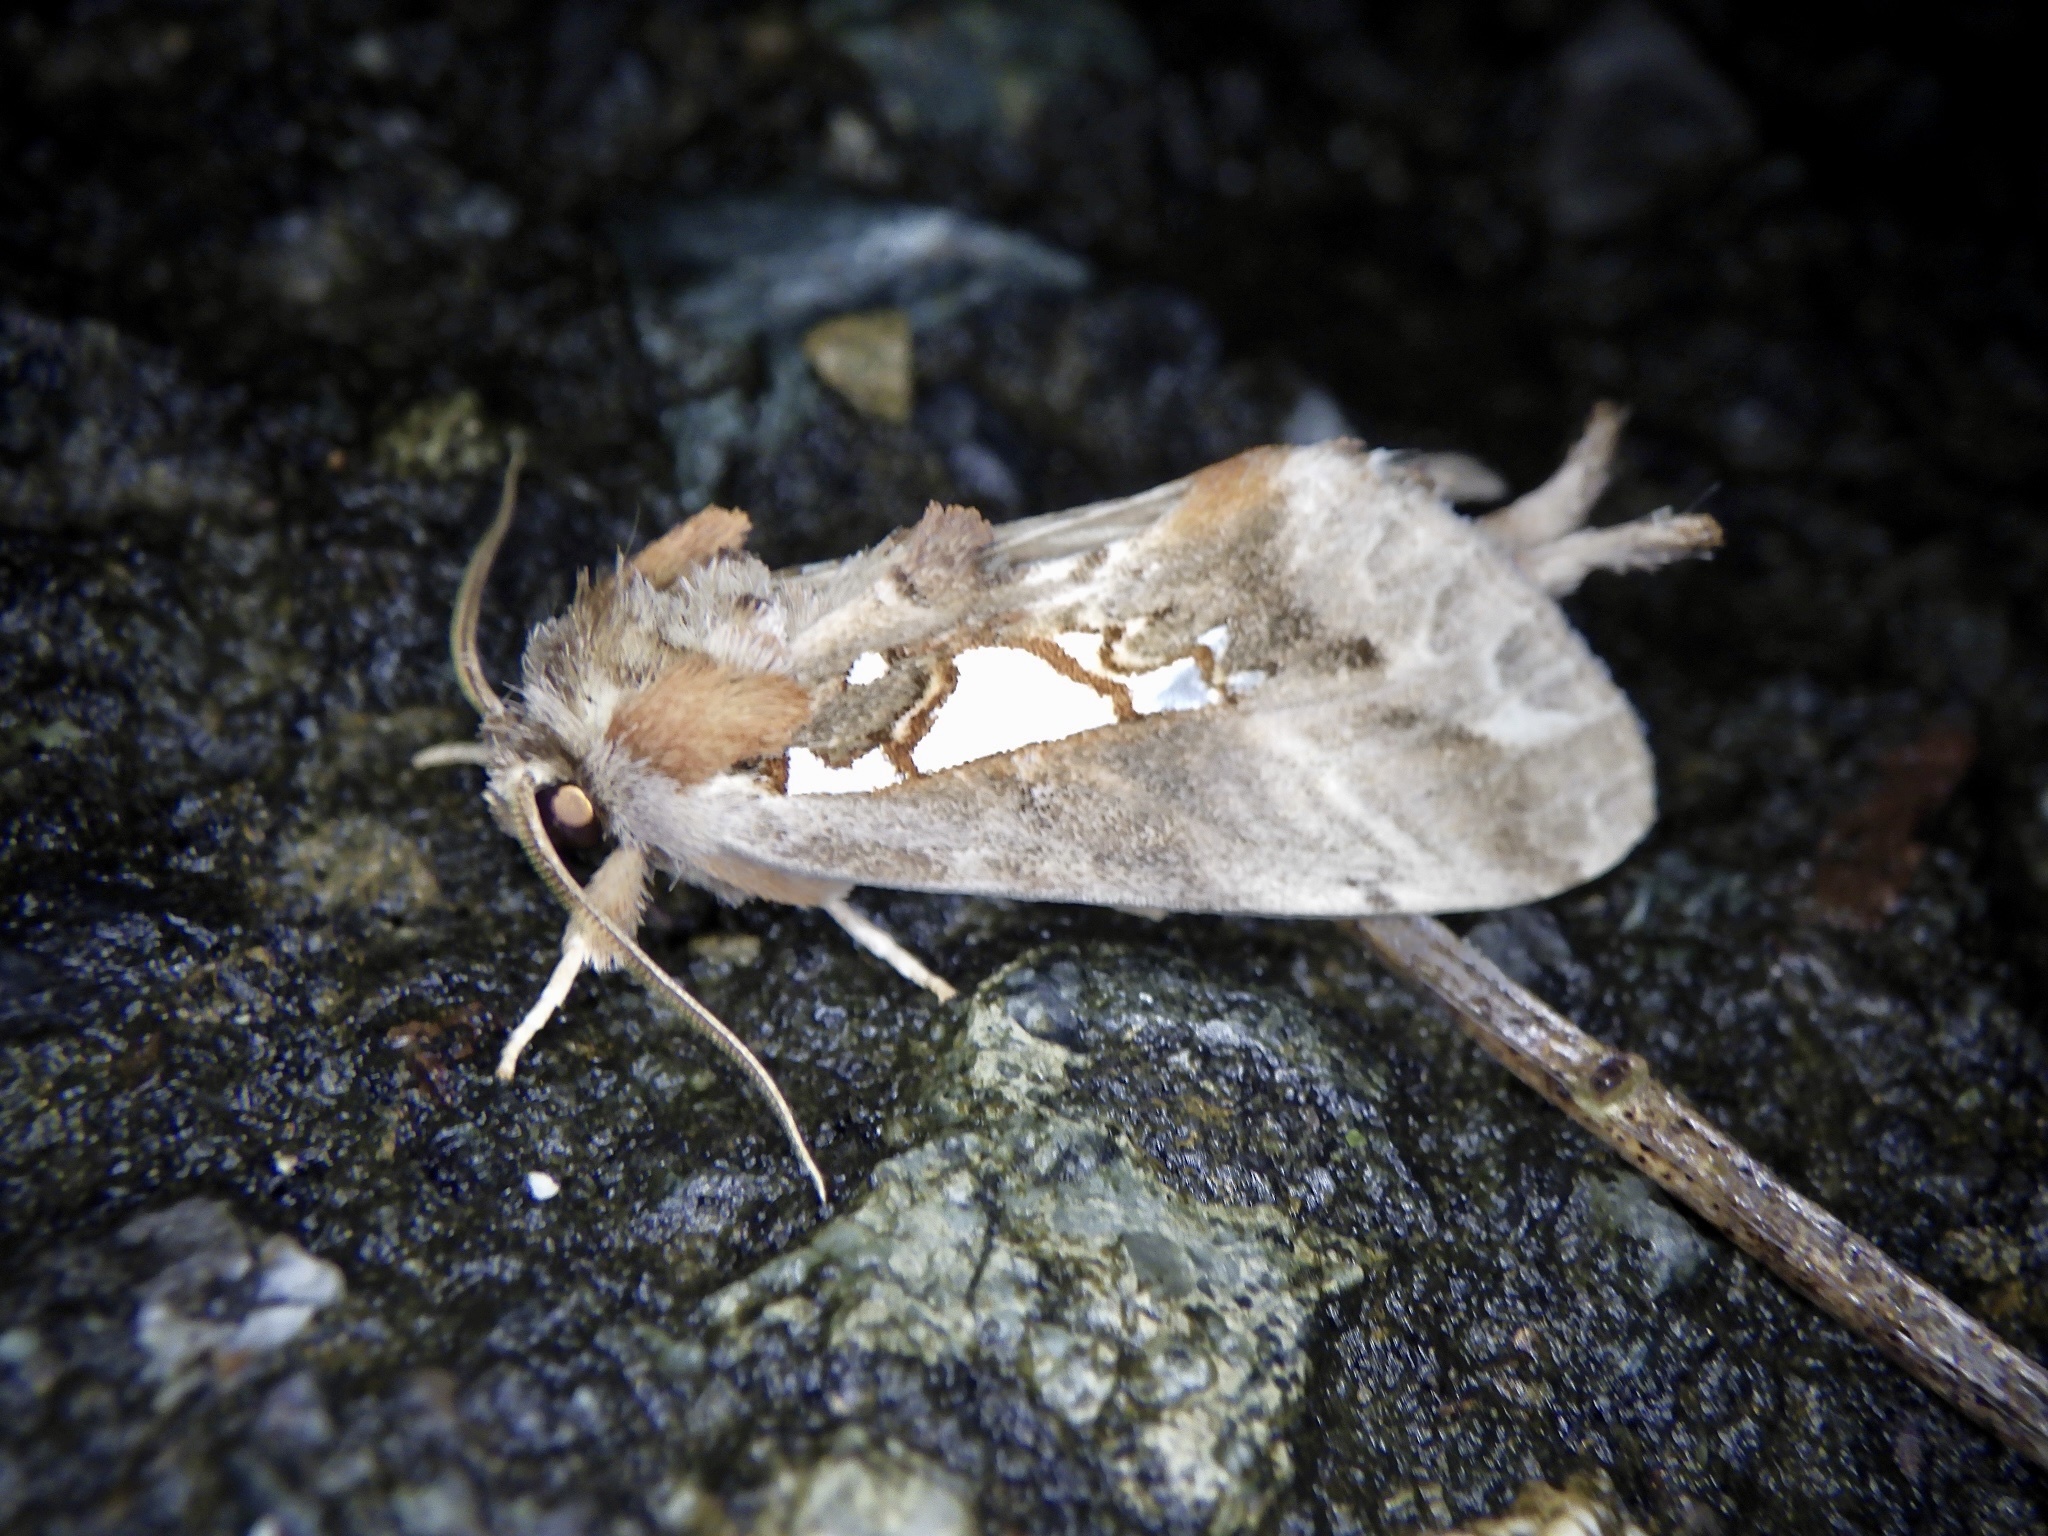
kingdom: Animalia
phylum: Arthropoda
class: Insecta
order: Lepidoptera
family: Notodontidae
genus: Spatalia
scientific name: Spatalia doerriesi
